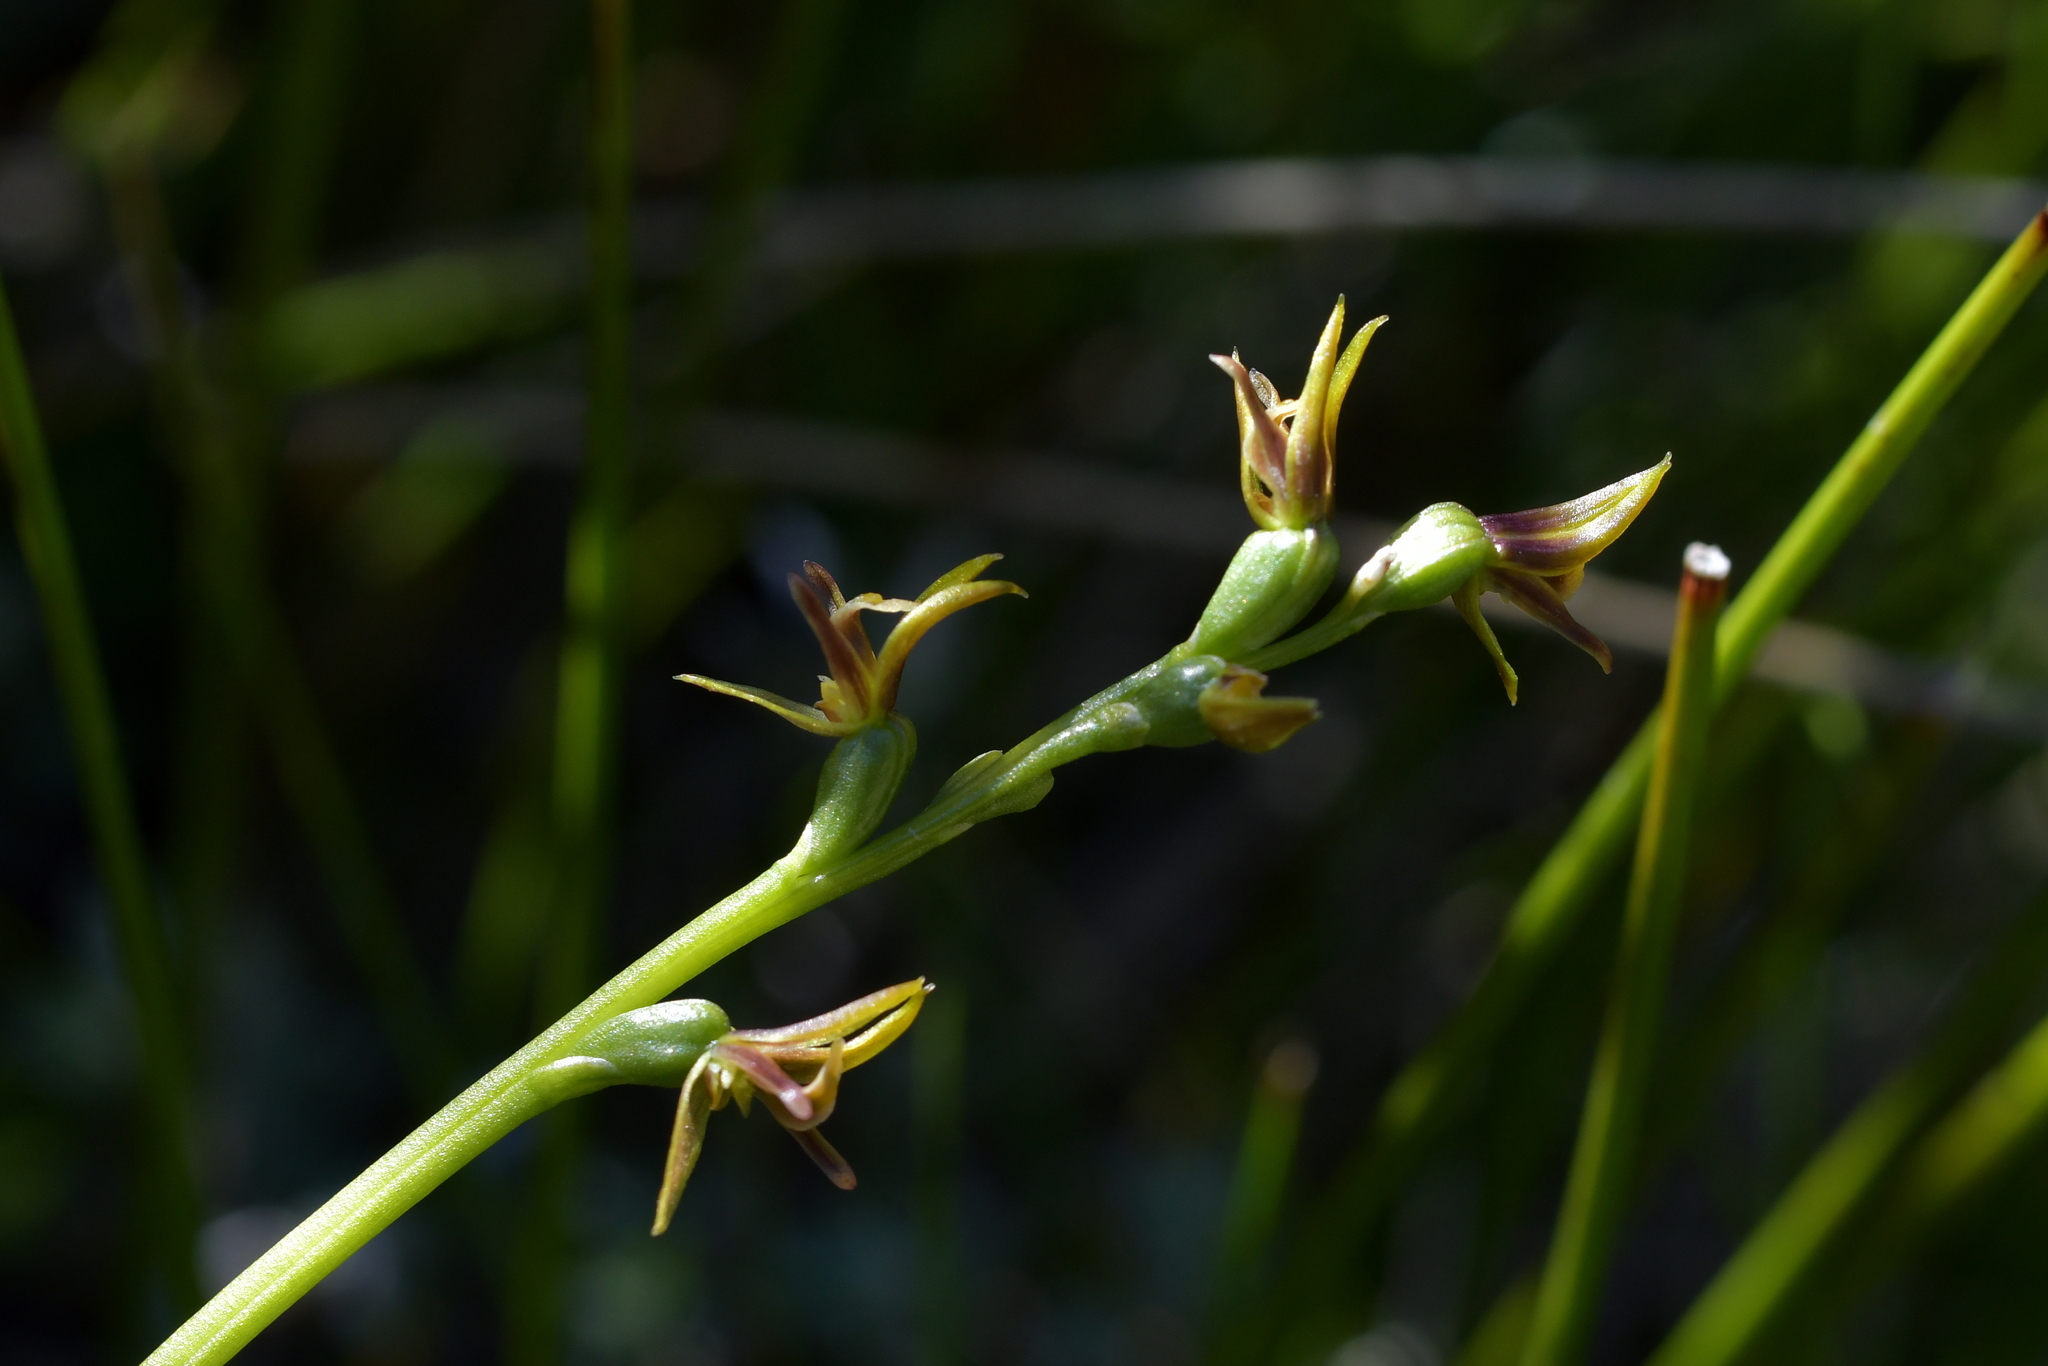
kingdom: Plantae
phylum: Tracheophyta
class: Liliopsida
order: Asparagales
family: Orchidaceae
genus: Prasophyllum
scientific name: Prasophyllum colensoi
